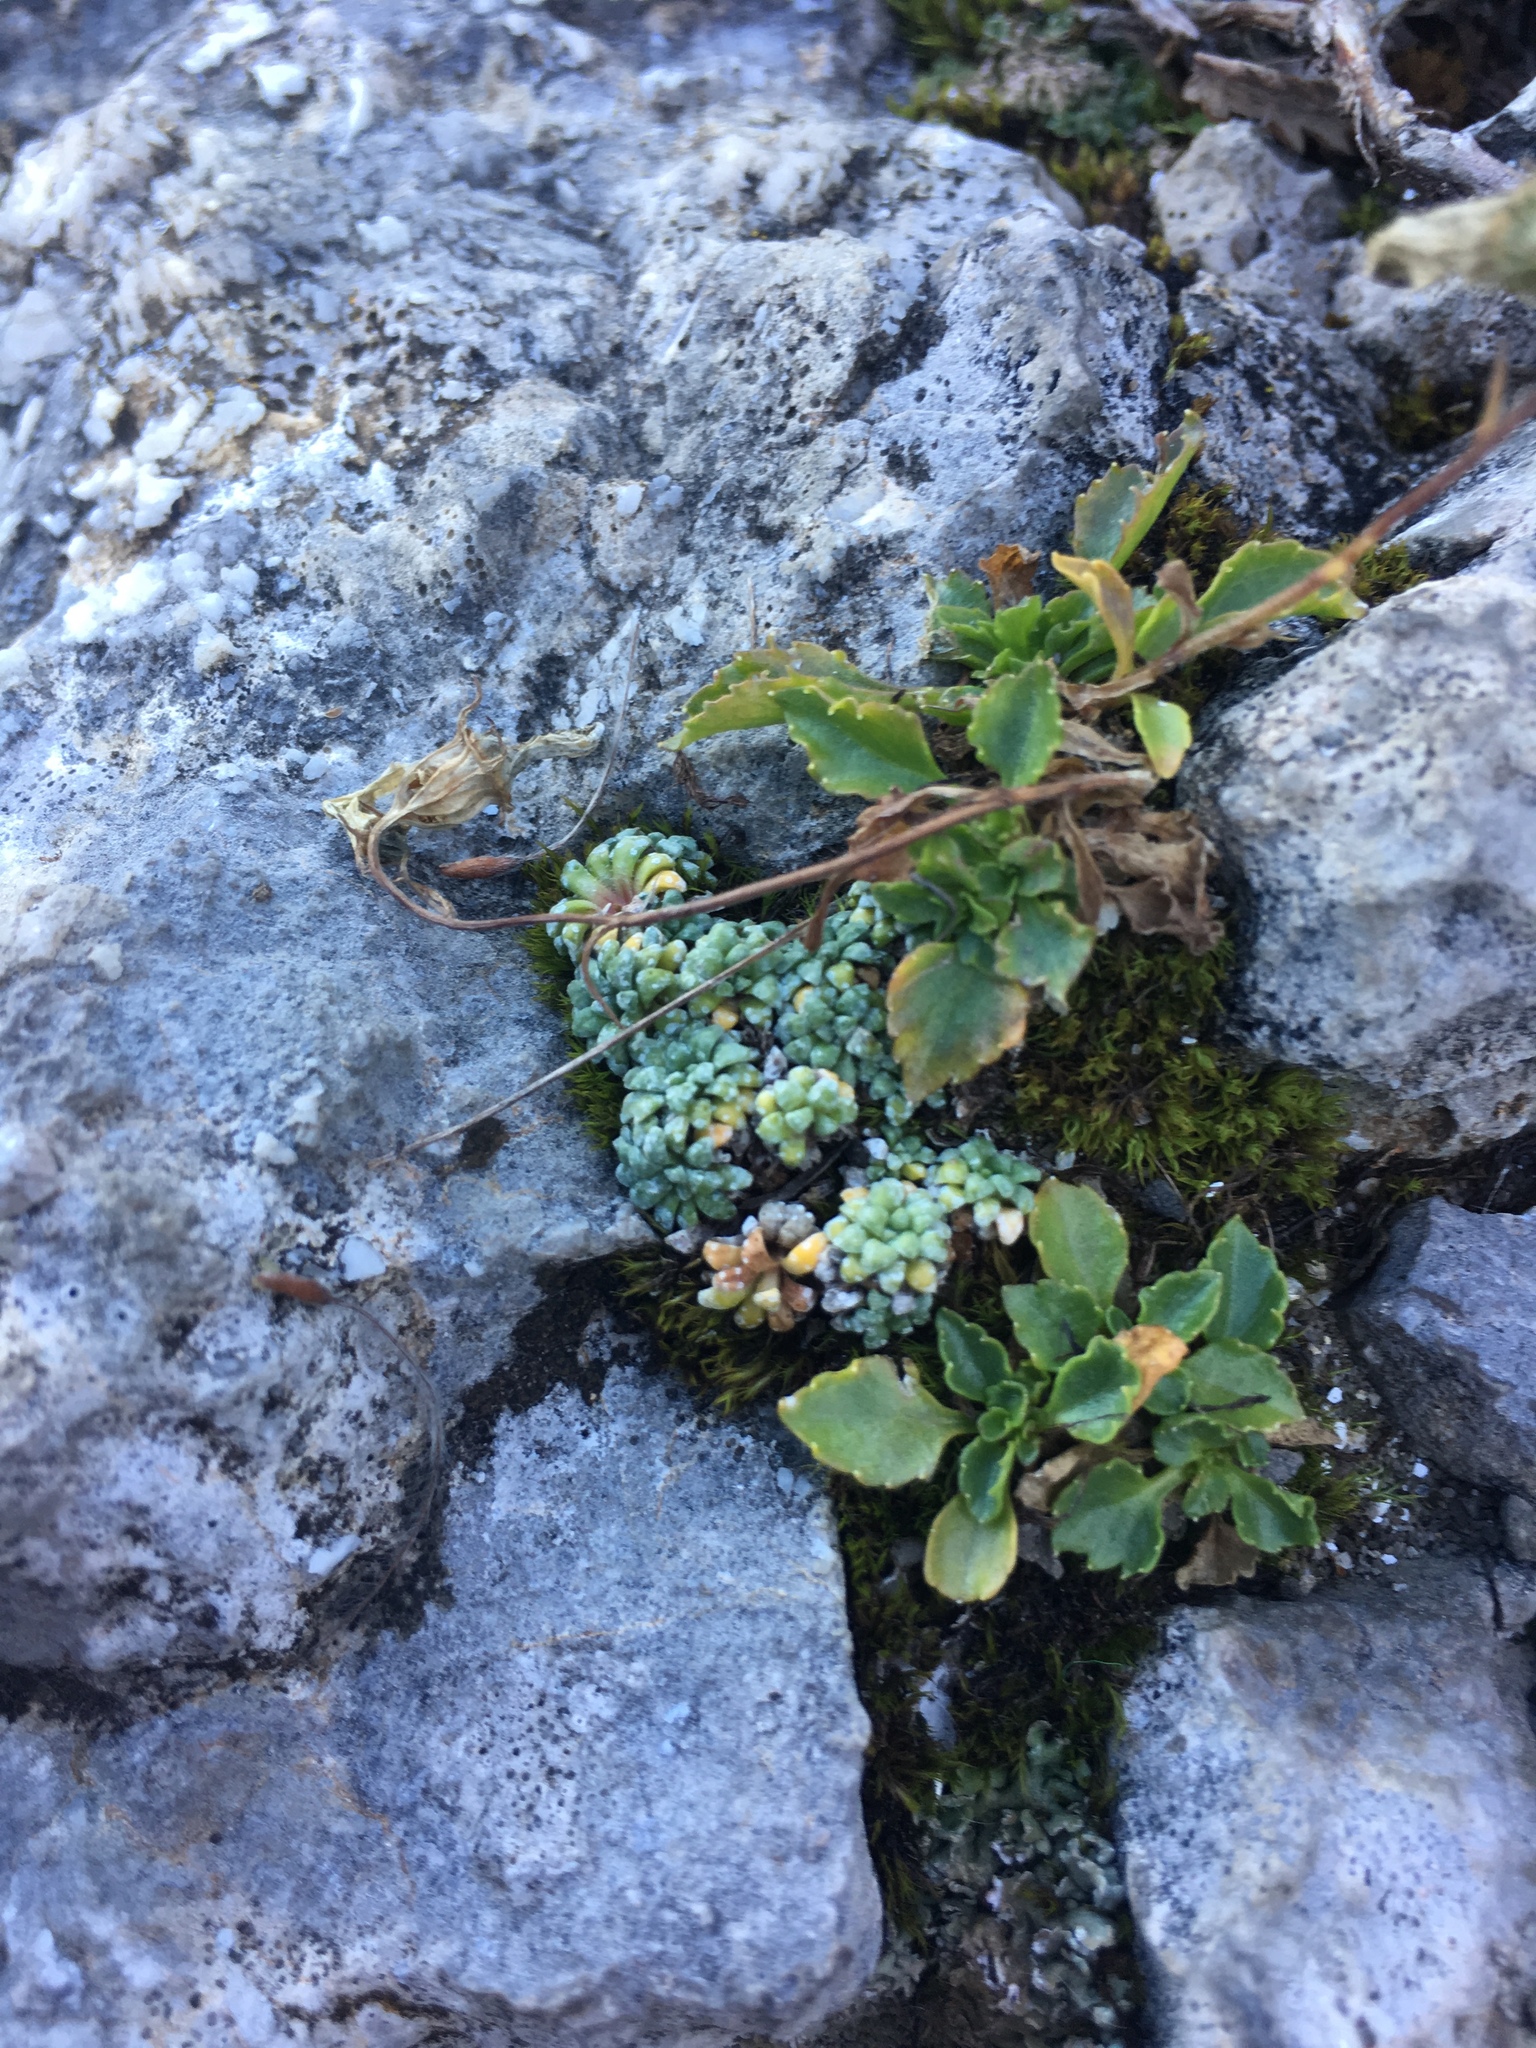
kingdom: Plantae
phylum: Tracheophyta
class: Magnoliopsida
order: Saxifragales
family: Saxifragaceae
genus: Saxifraga
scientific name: Saxifraga caesia
